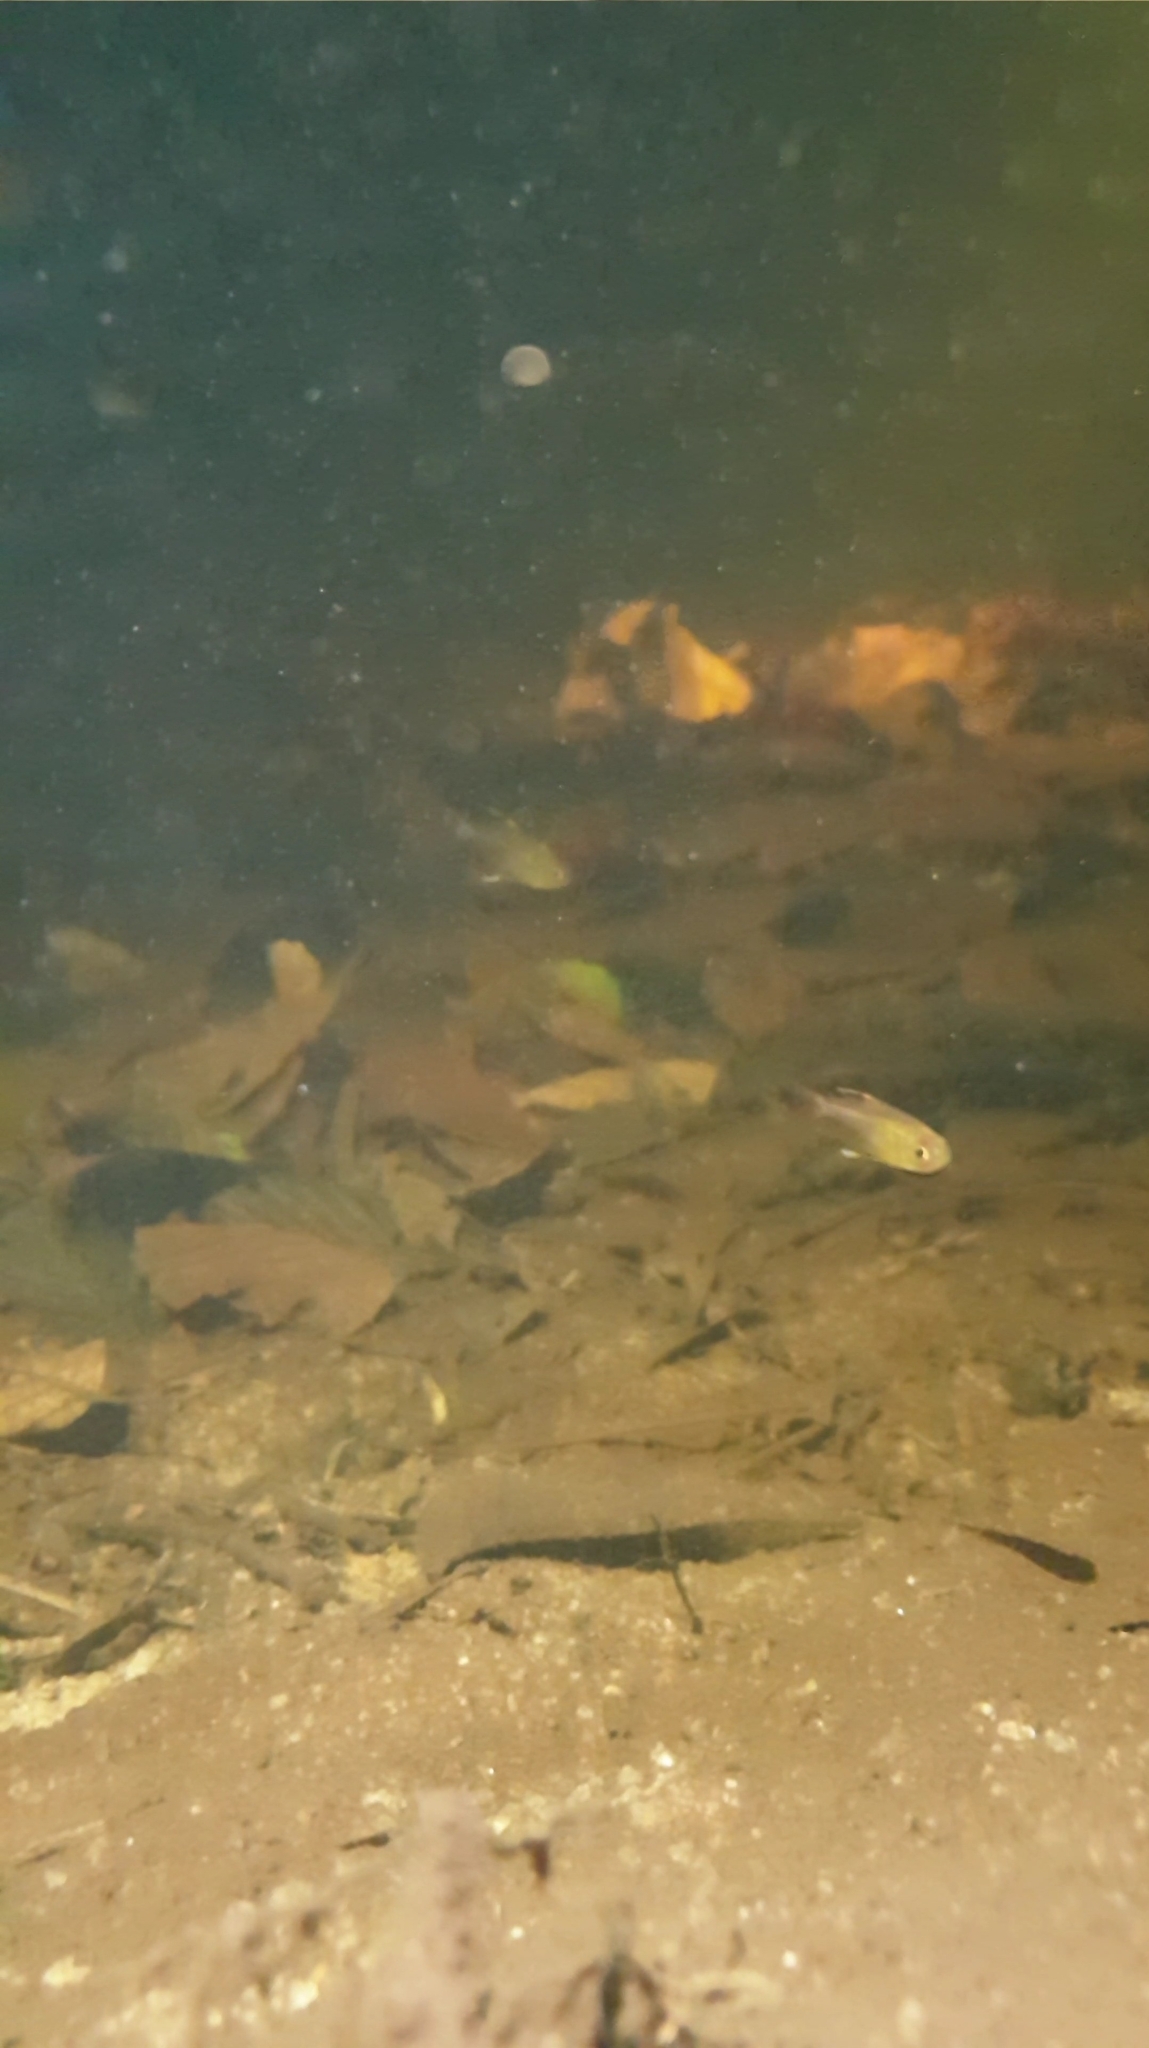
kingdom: Animalia
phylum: Chordata
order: Characiformes
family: Characidae
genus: Hyphessobrycon
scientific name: Hyphessobrycon pulchripinnis
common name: Lemon tetra
